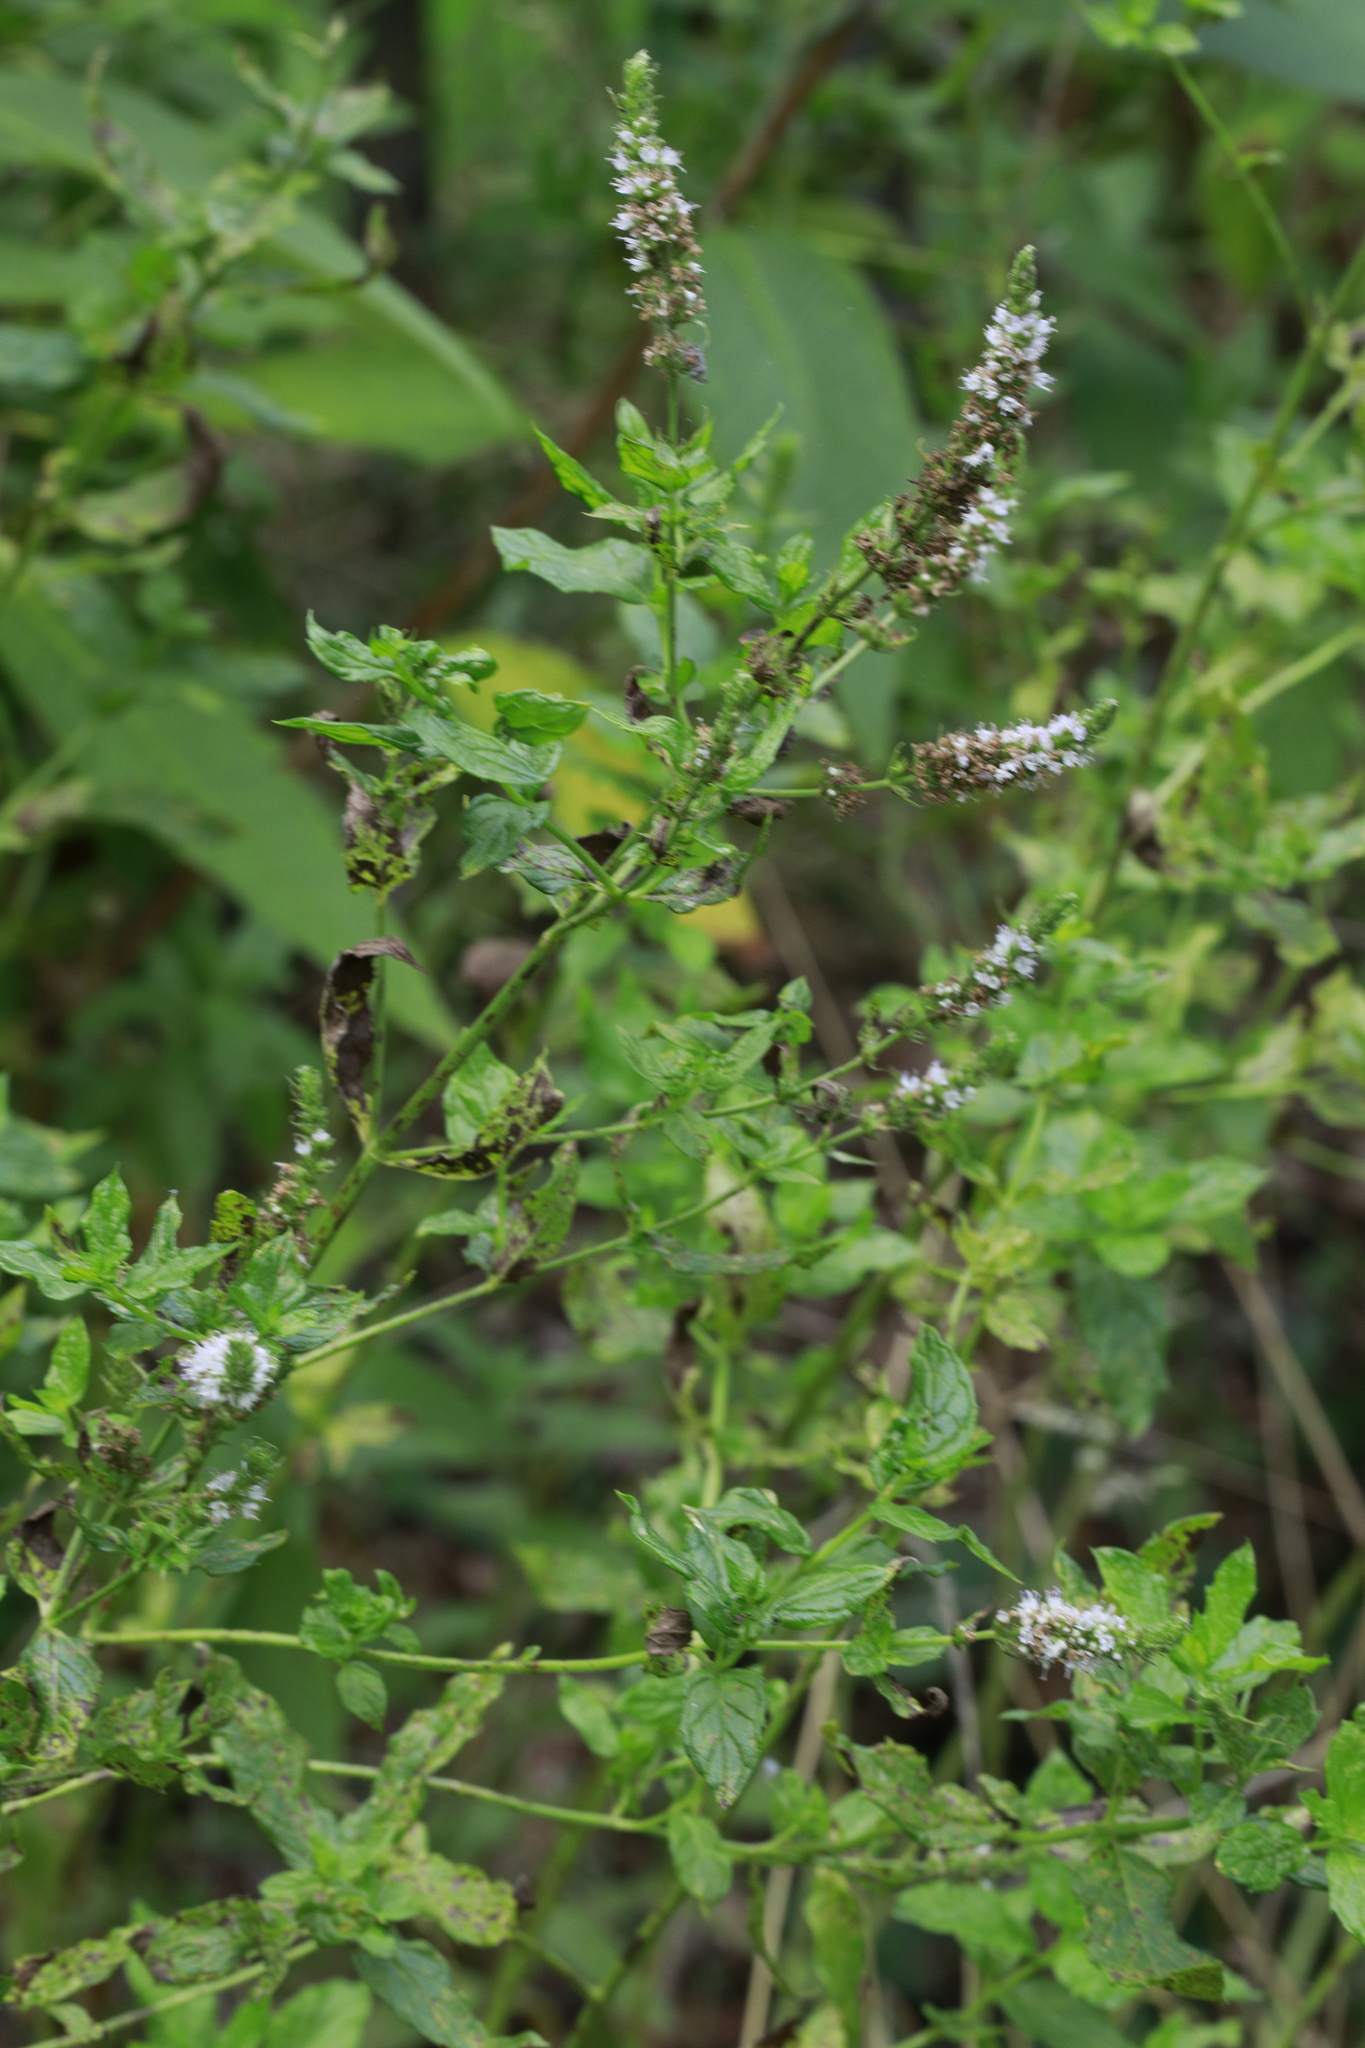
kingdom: Plantae
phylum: Tracheophyta
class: Magnoliopsida
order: Lamiales
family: Lamiaceae
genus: Mentha
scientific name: Mentha spicata
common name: Spearmint
